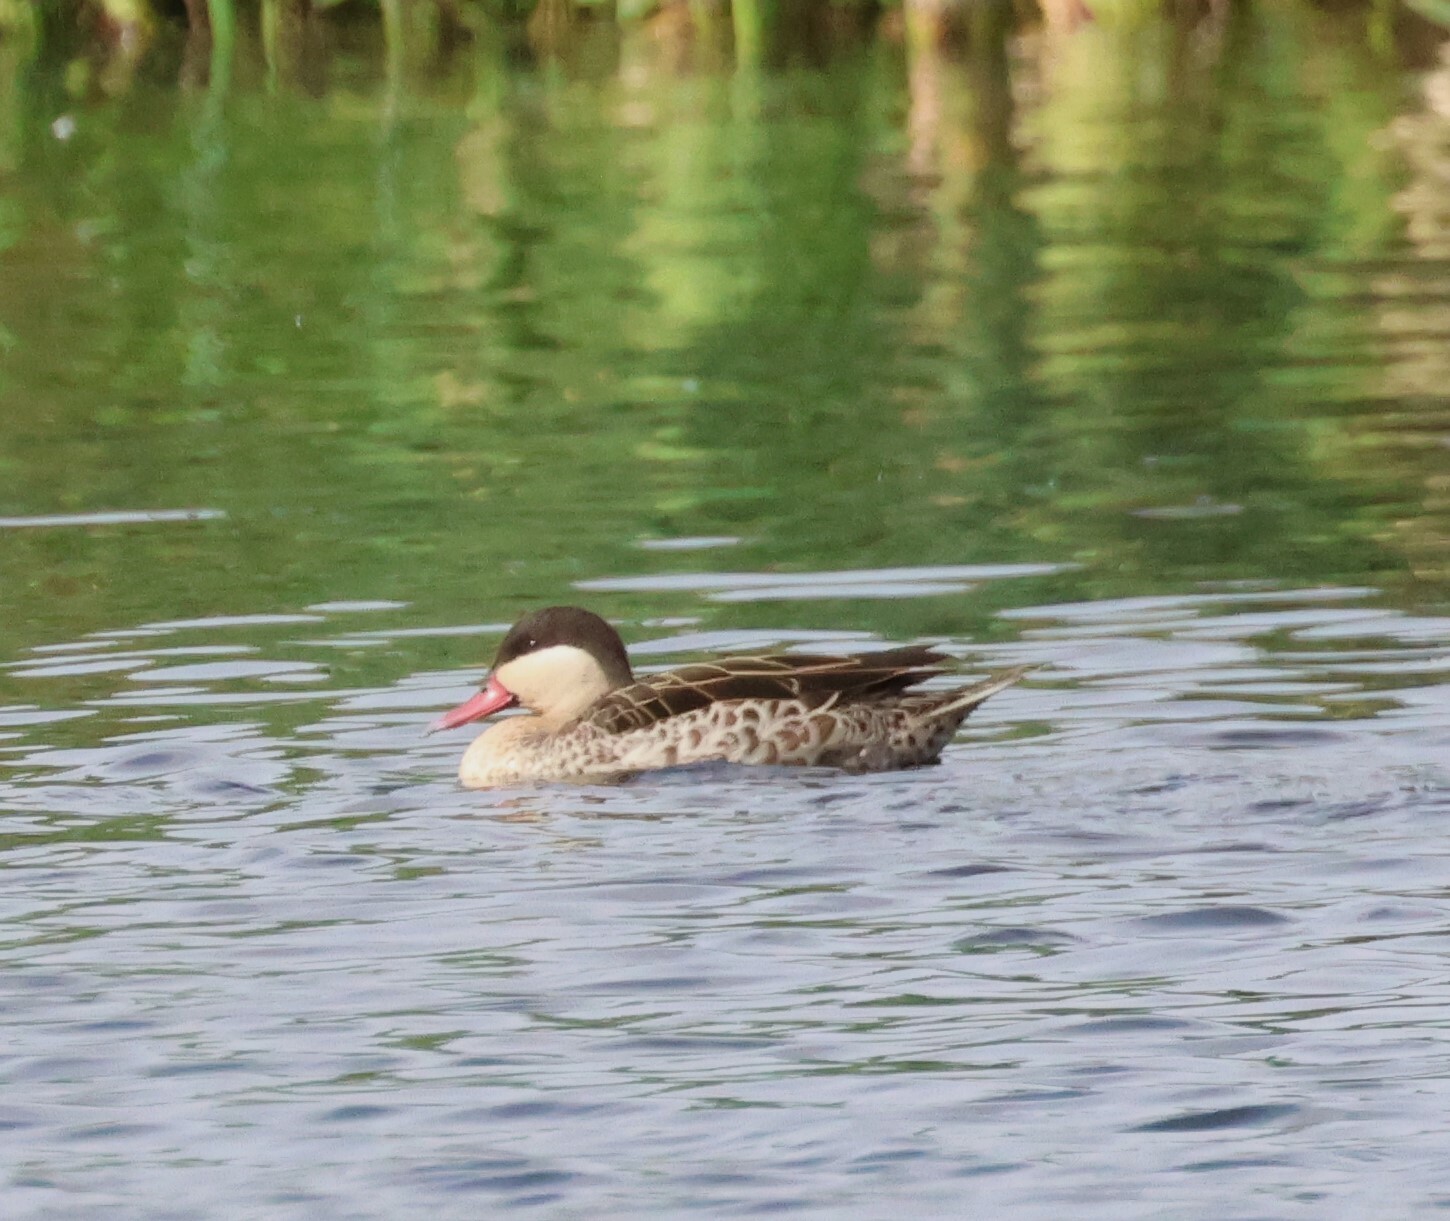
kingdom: Animalia
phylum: Chordata
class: Aves
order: Anseriformes
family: Anatidae
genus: Anas
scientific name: Anas erythrorhyncha
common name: Red-billed teal
